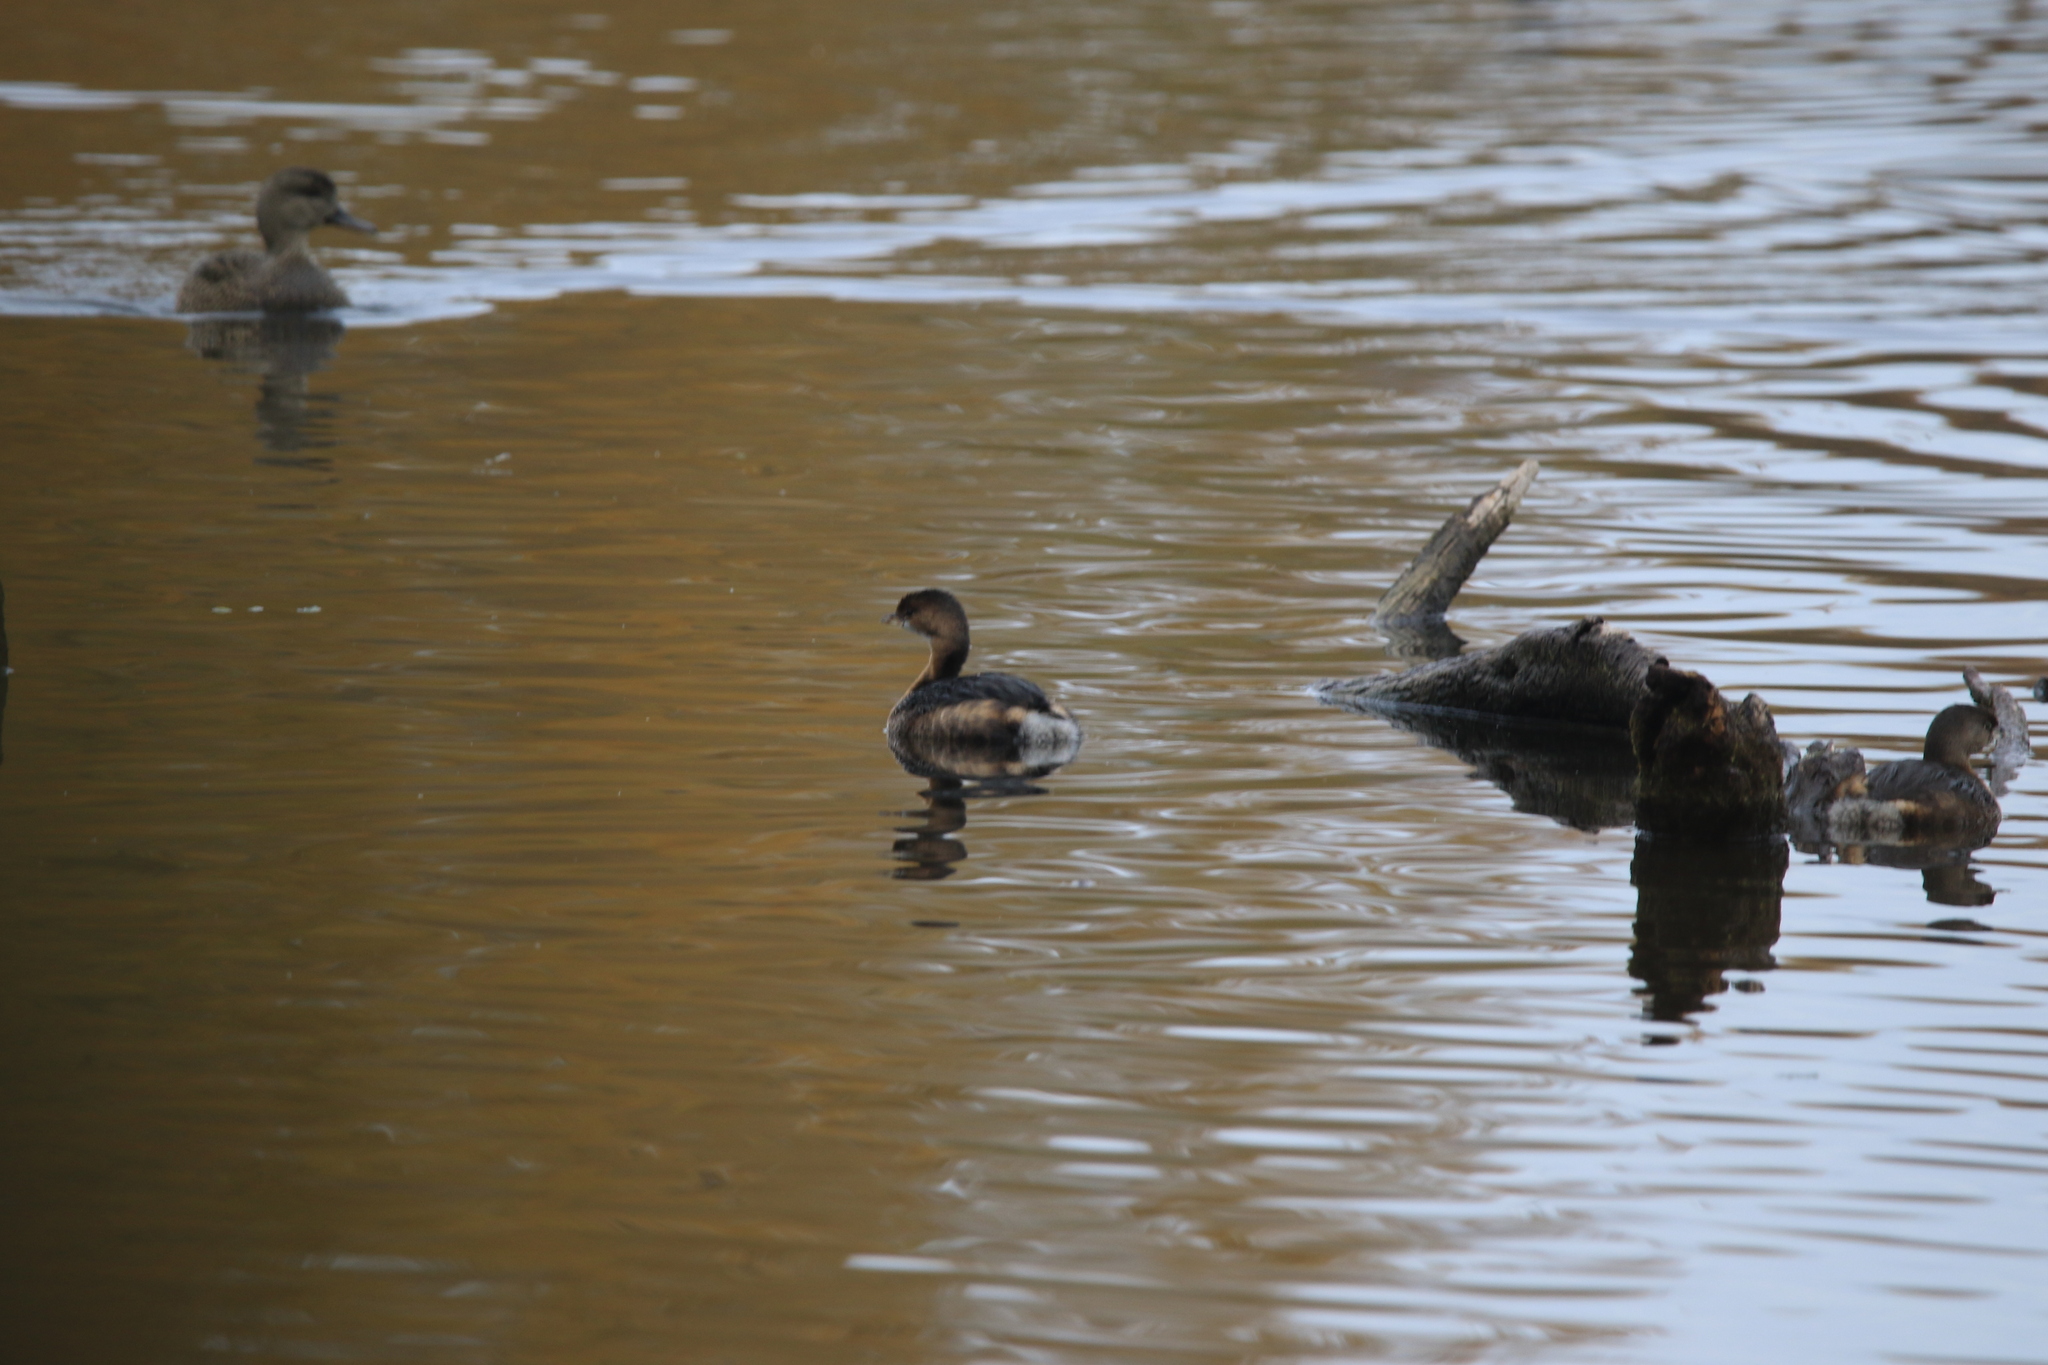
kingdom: Animalia
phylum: Chordata
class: Aves
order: Podicipediformes
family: Podicipedidae
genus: Podilymbus
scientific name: Podilymbus podiceps
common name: Pied-billed grebe
